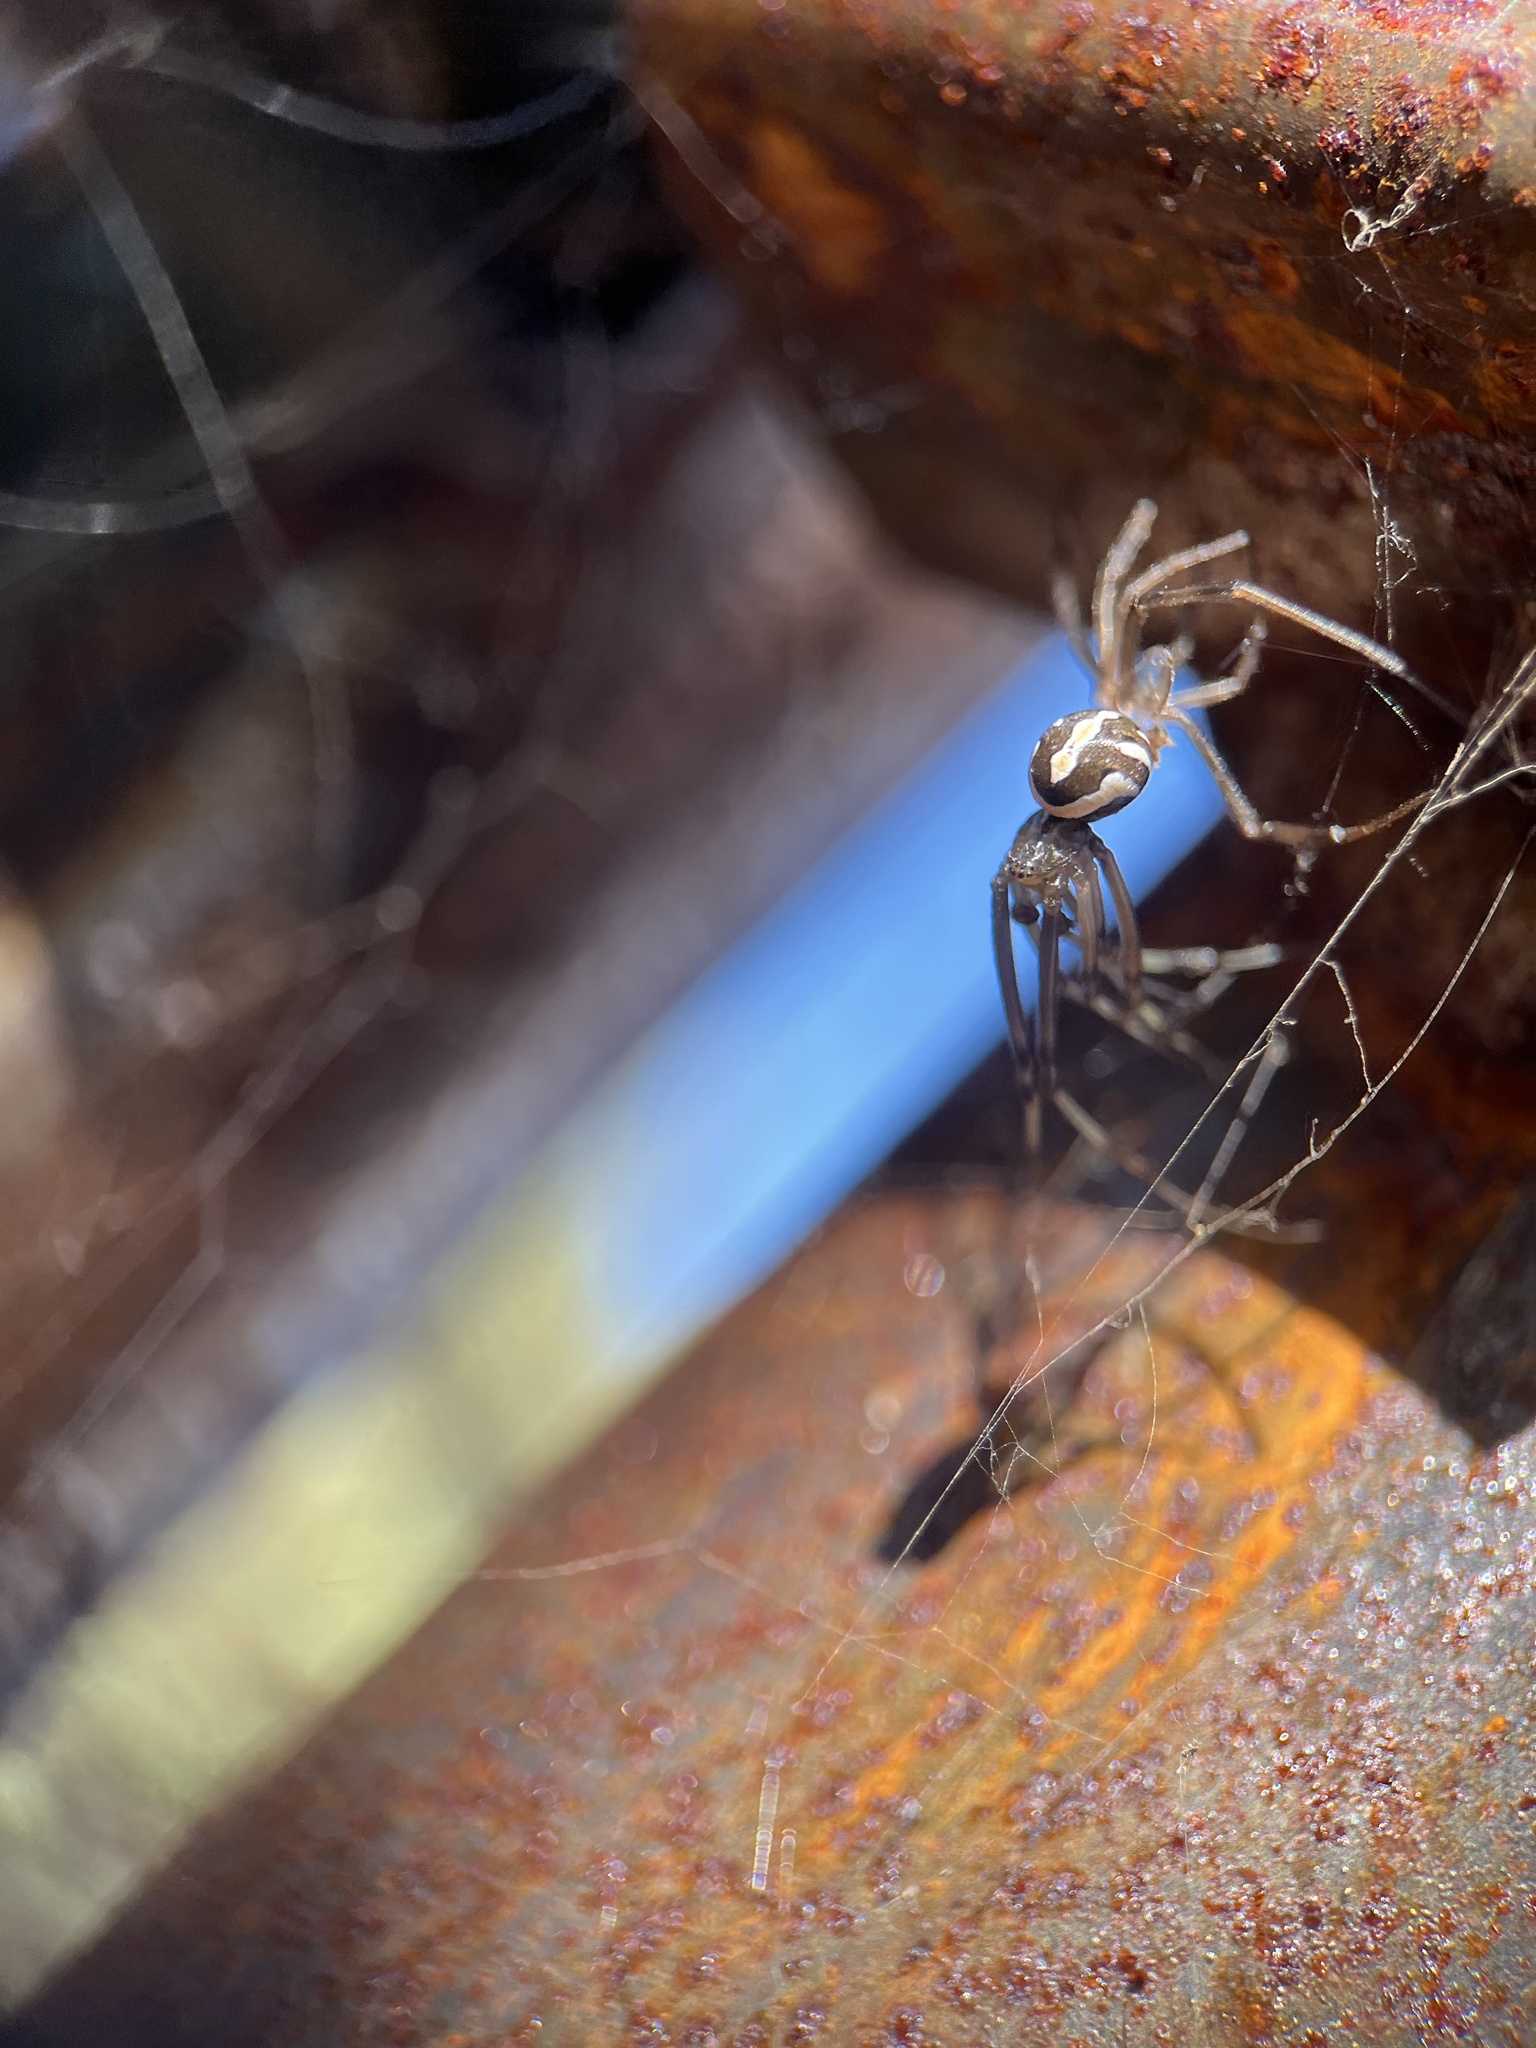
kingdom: Animalia
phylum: Arthropoda
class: Arachnida
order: Araneae
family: Theridiidae
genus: Latrodectus
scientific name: Latrodectus hesperus
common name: Western black widow
